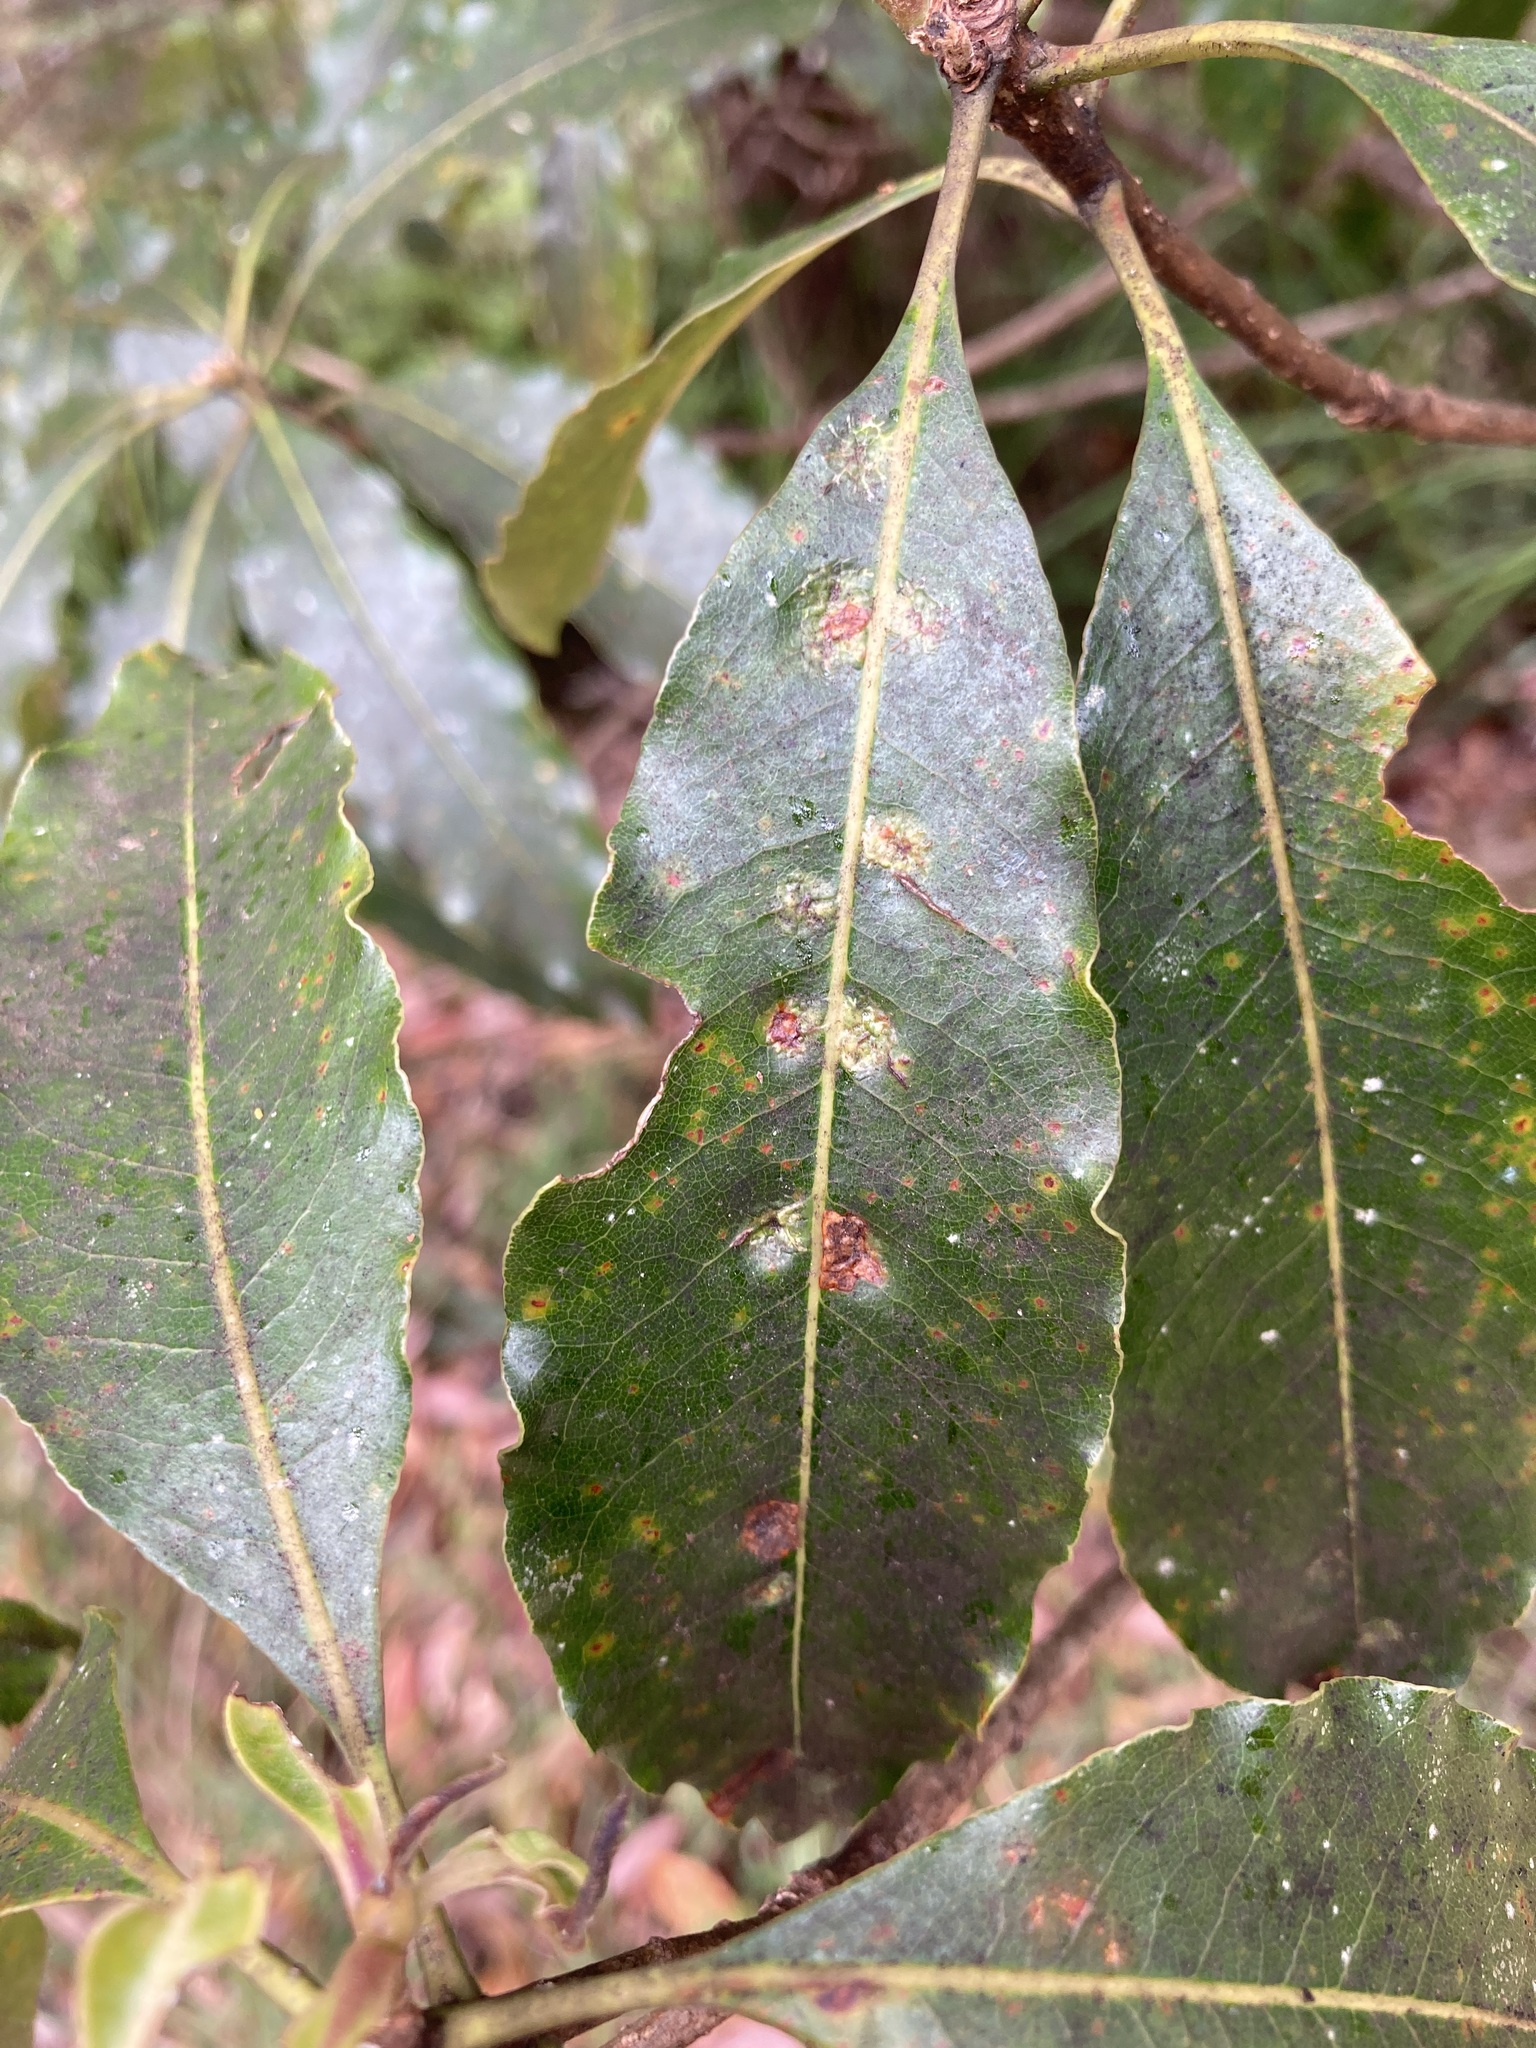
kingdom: Animalia
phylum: Arthropoda
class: Insecta
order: Diptera
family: Agromyzidae
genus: Phytoliriomyza
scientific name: Phytoliriomyza pittosporophylli
